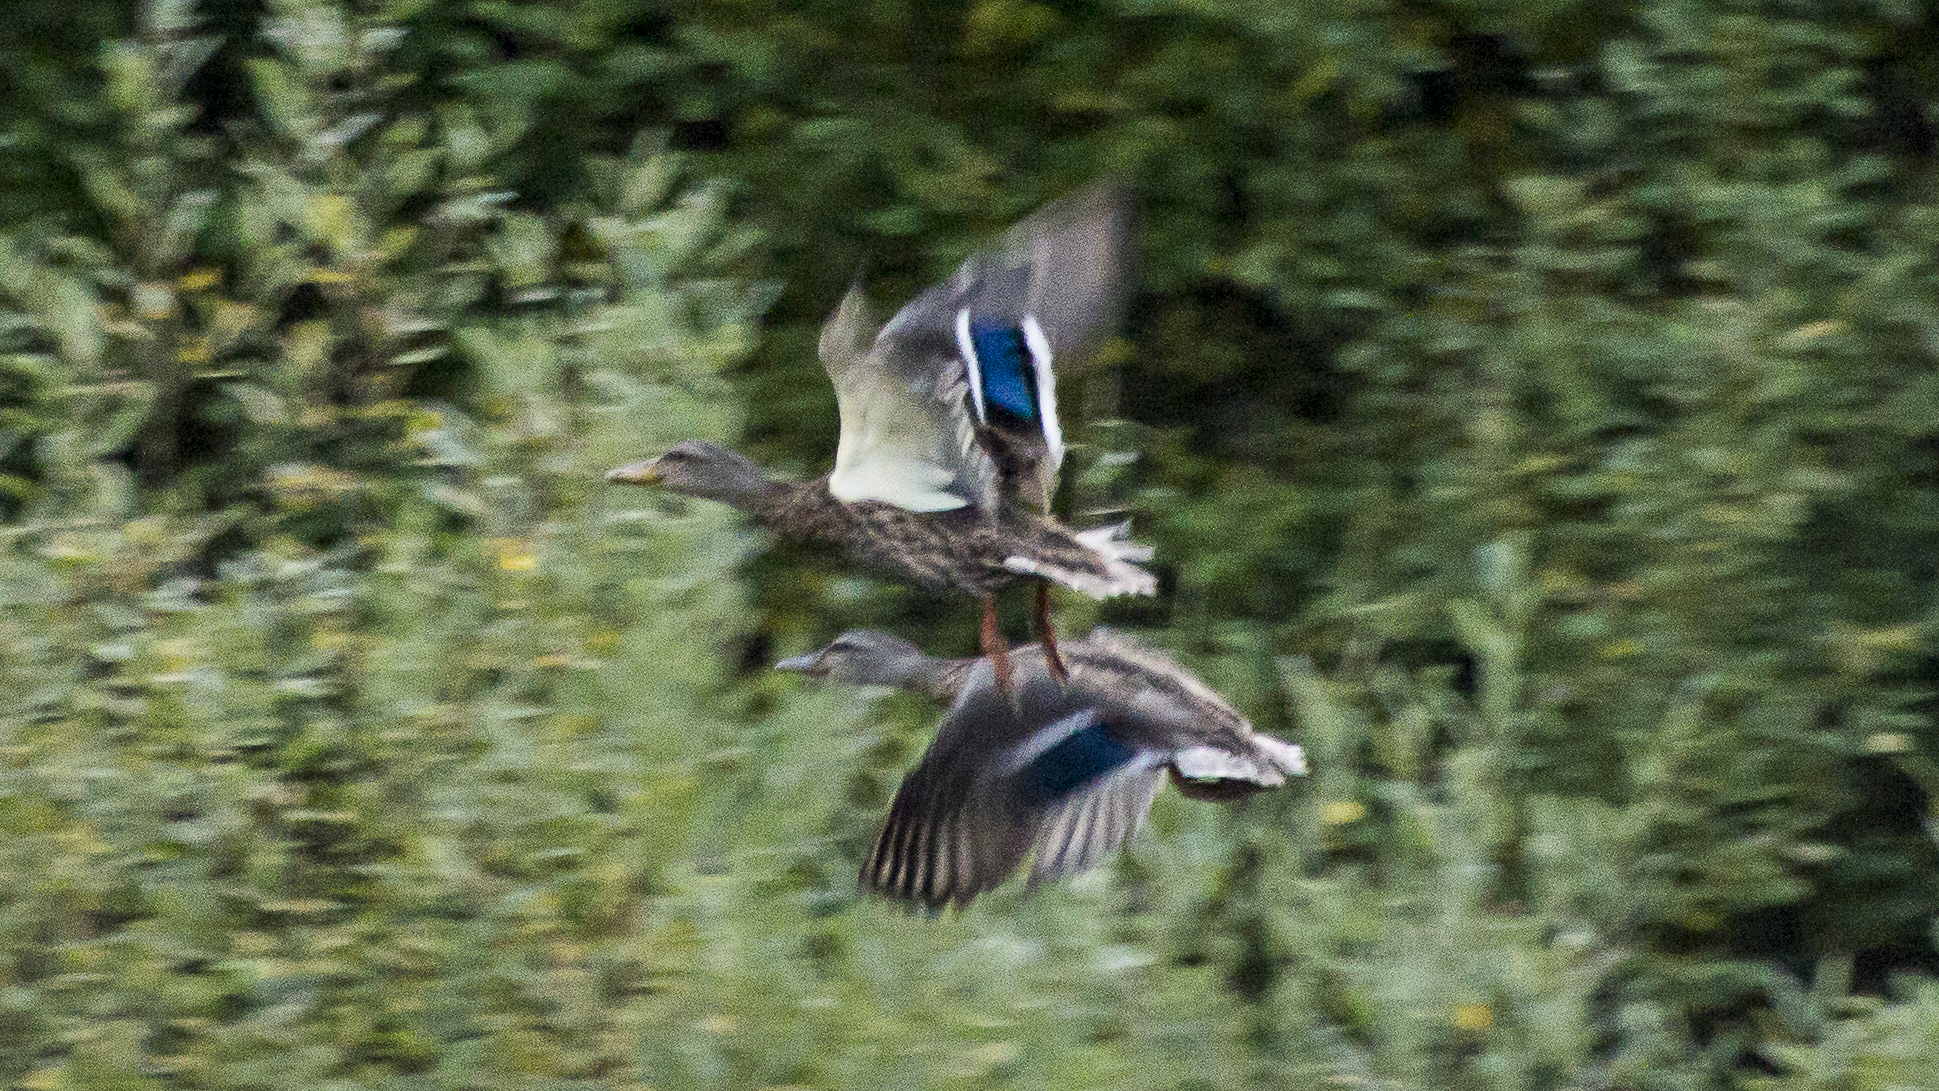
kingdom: Animalia
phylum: Chordata
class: Aves
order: Anseriformes
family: Anatidae
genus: Anas
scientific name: Anas platyrhynchos
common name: Mallard
